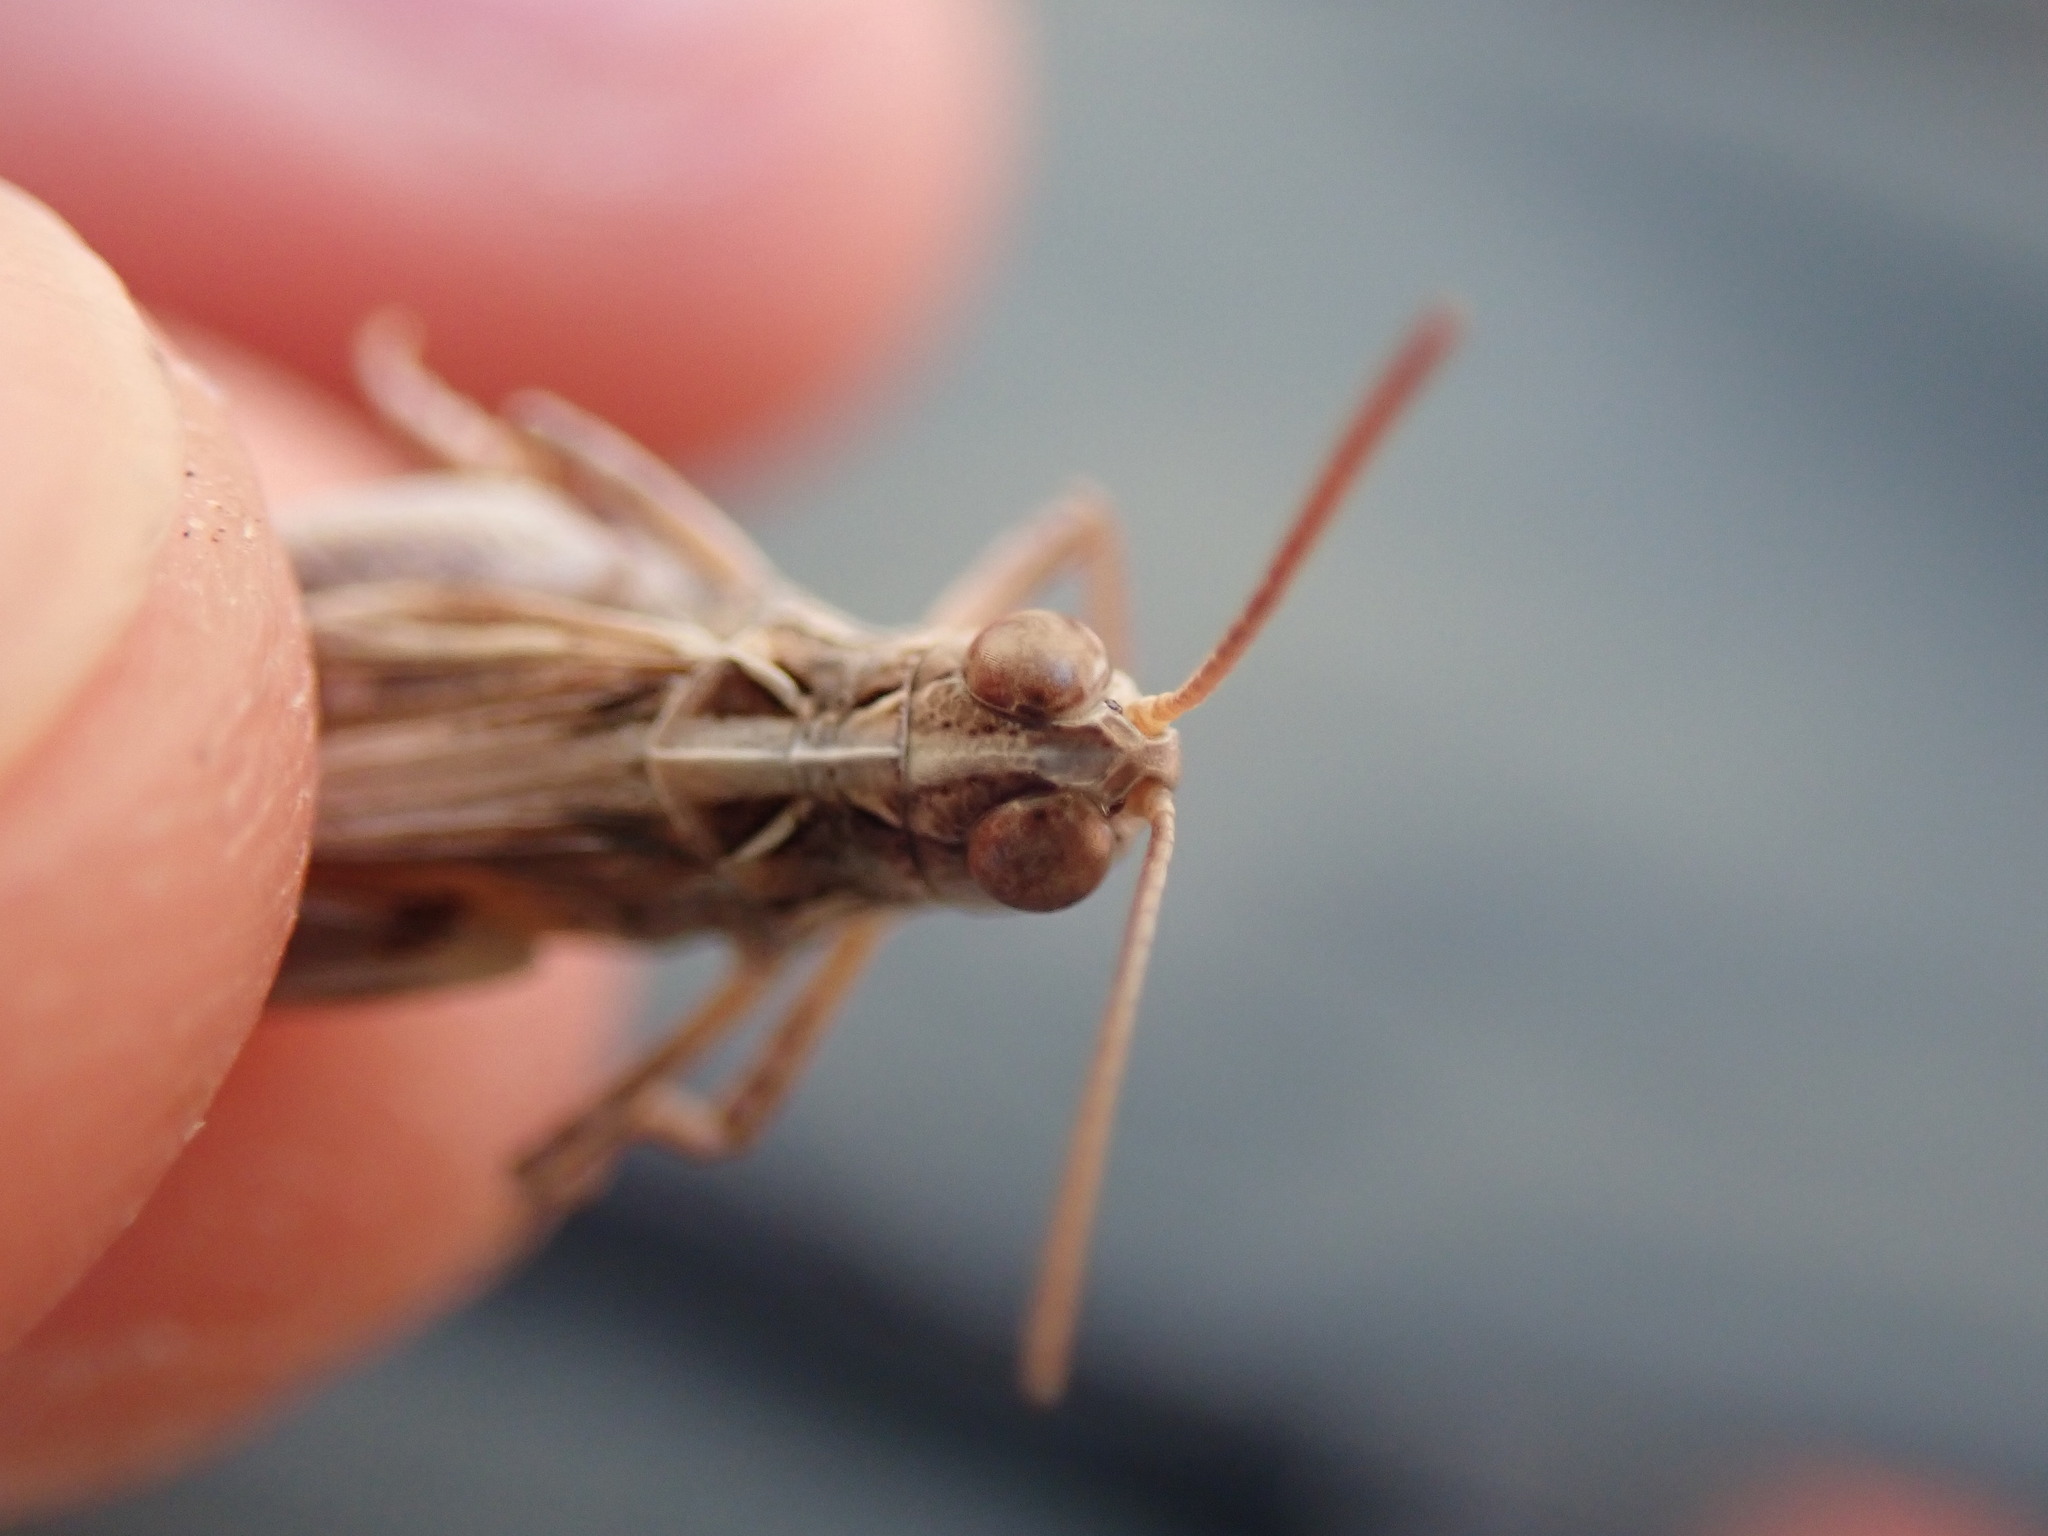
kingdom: Animalia
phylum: Arthropoda
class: Insecta
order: Orthoptera
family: Acrididae
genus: Dociostaurus
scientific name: Dociostaurus jagoi
